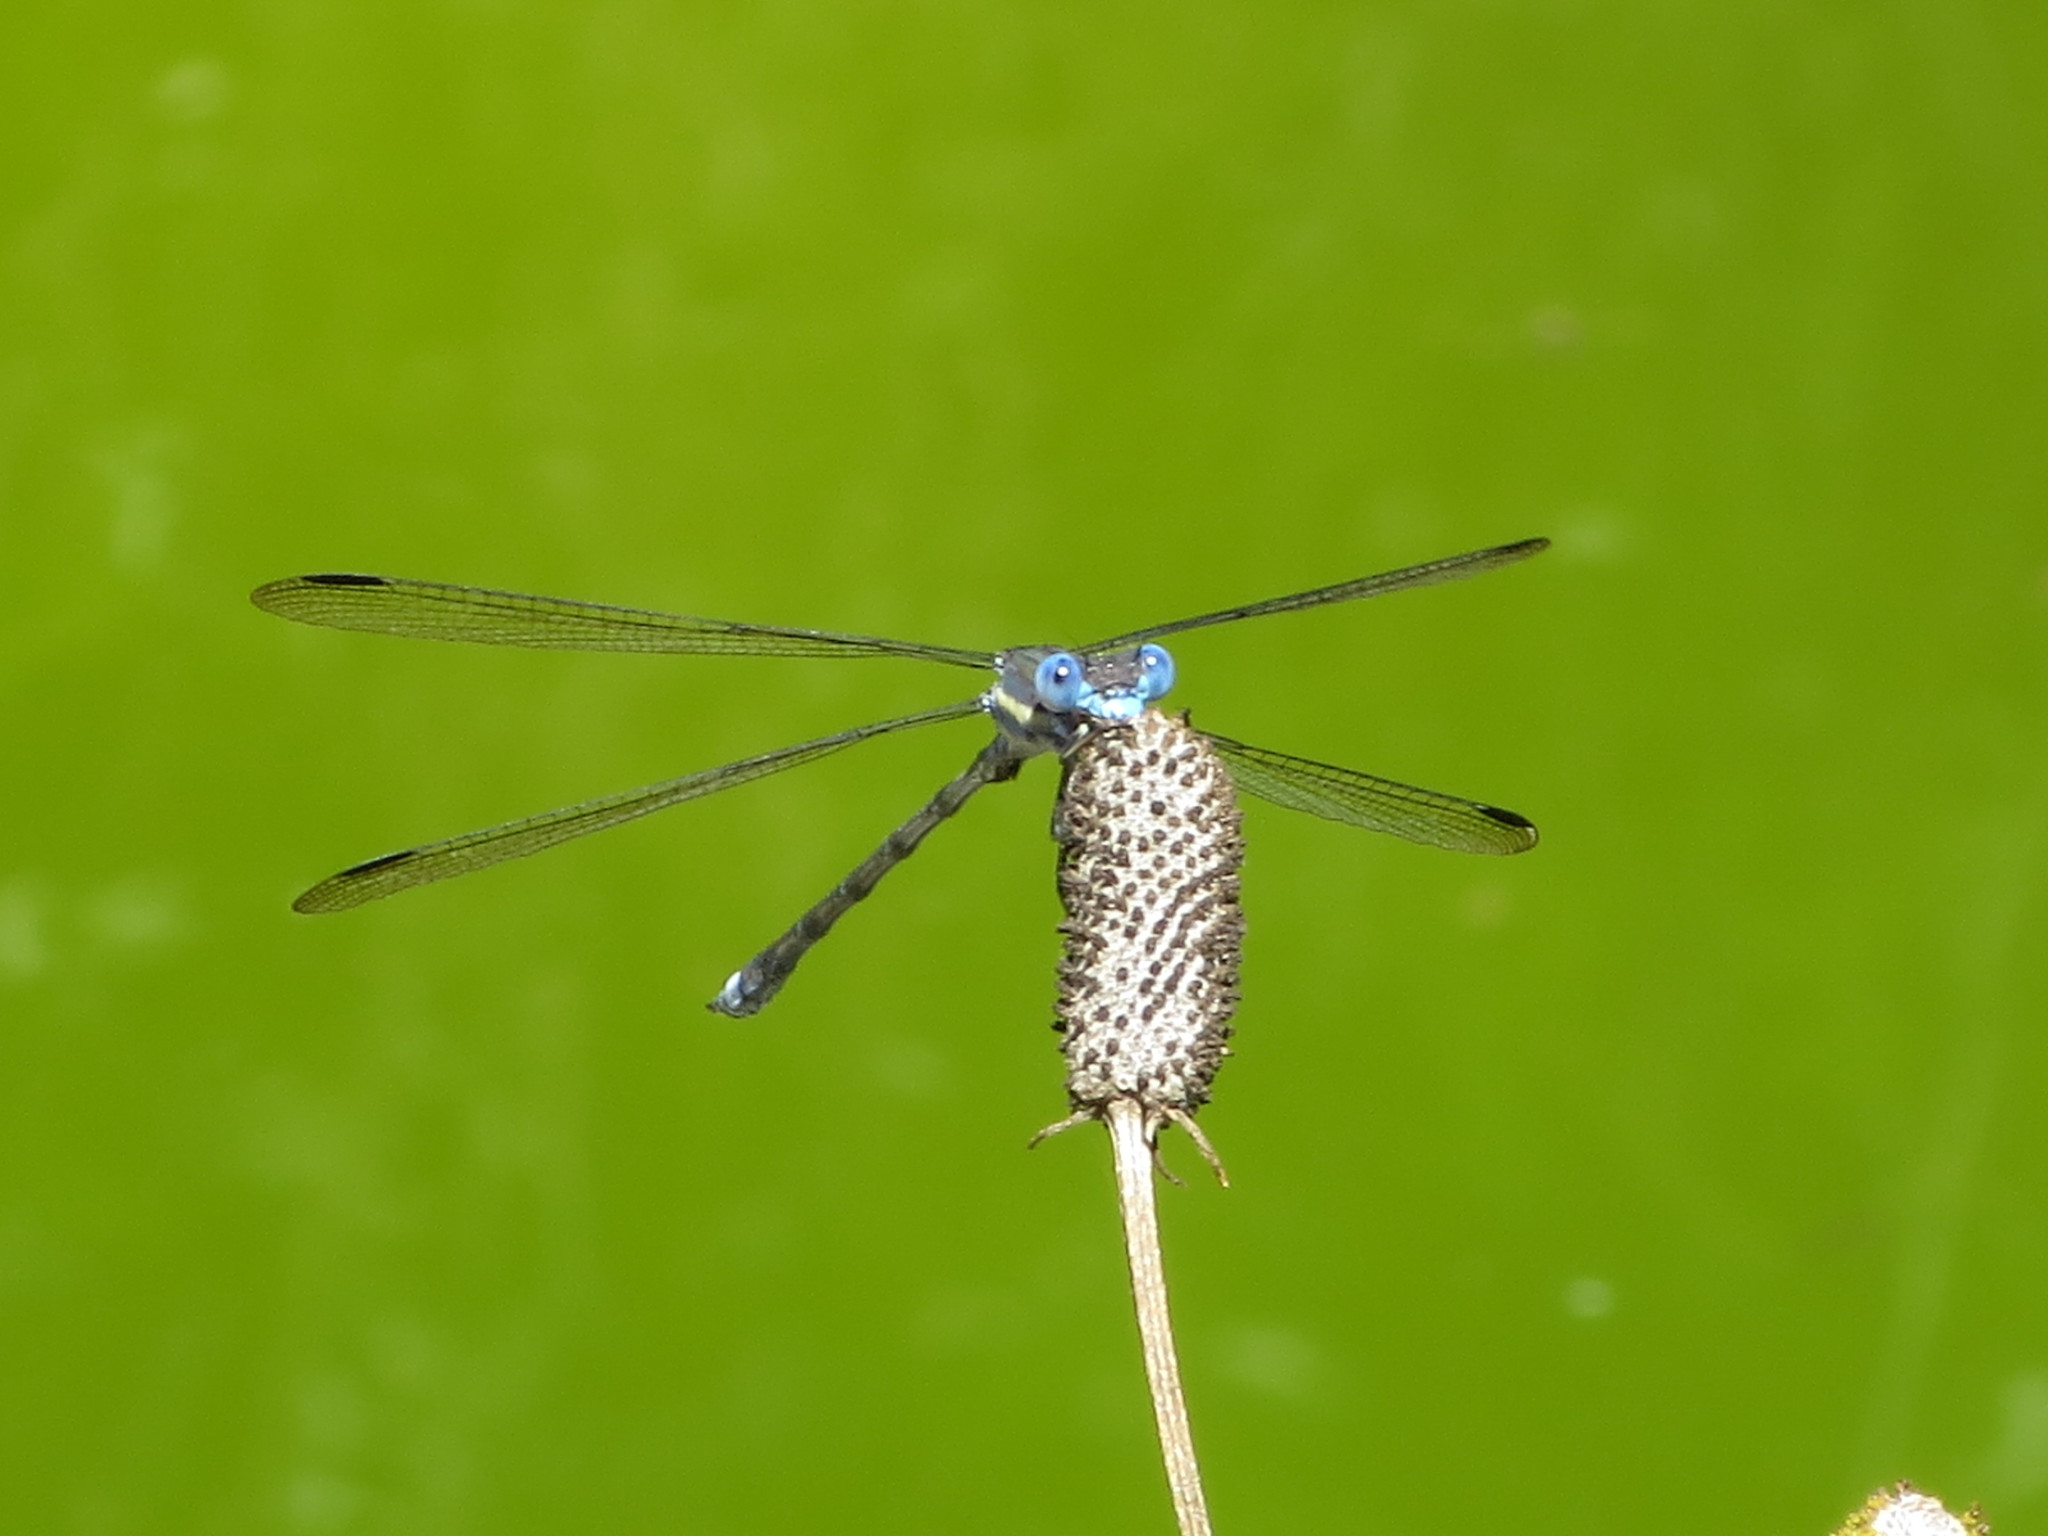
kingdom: Animalia
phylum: Arthropoda
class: Insecta
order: Odonata
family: Lestidae
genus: Archilestes
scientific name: Archilestes grandis
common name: Great spreadwing
